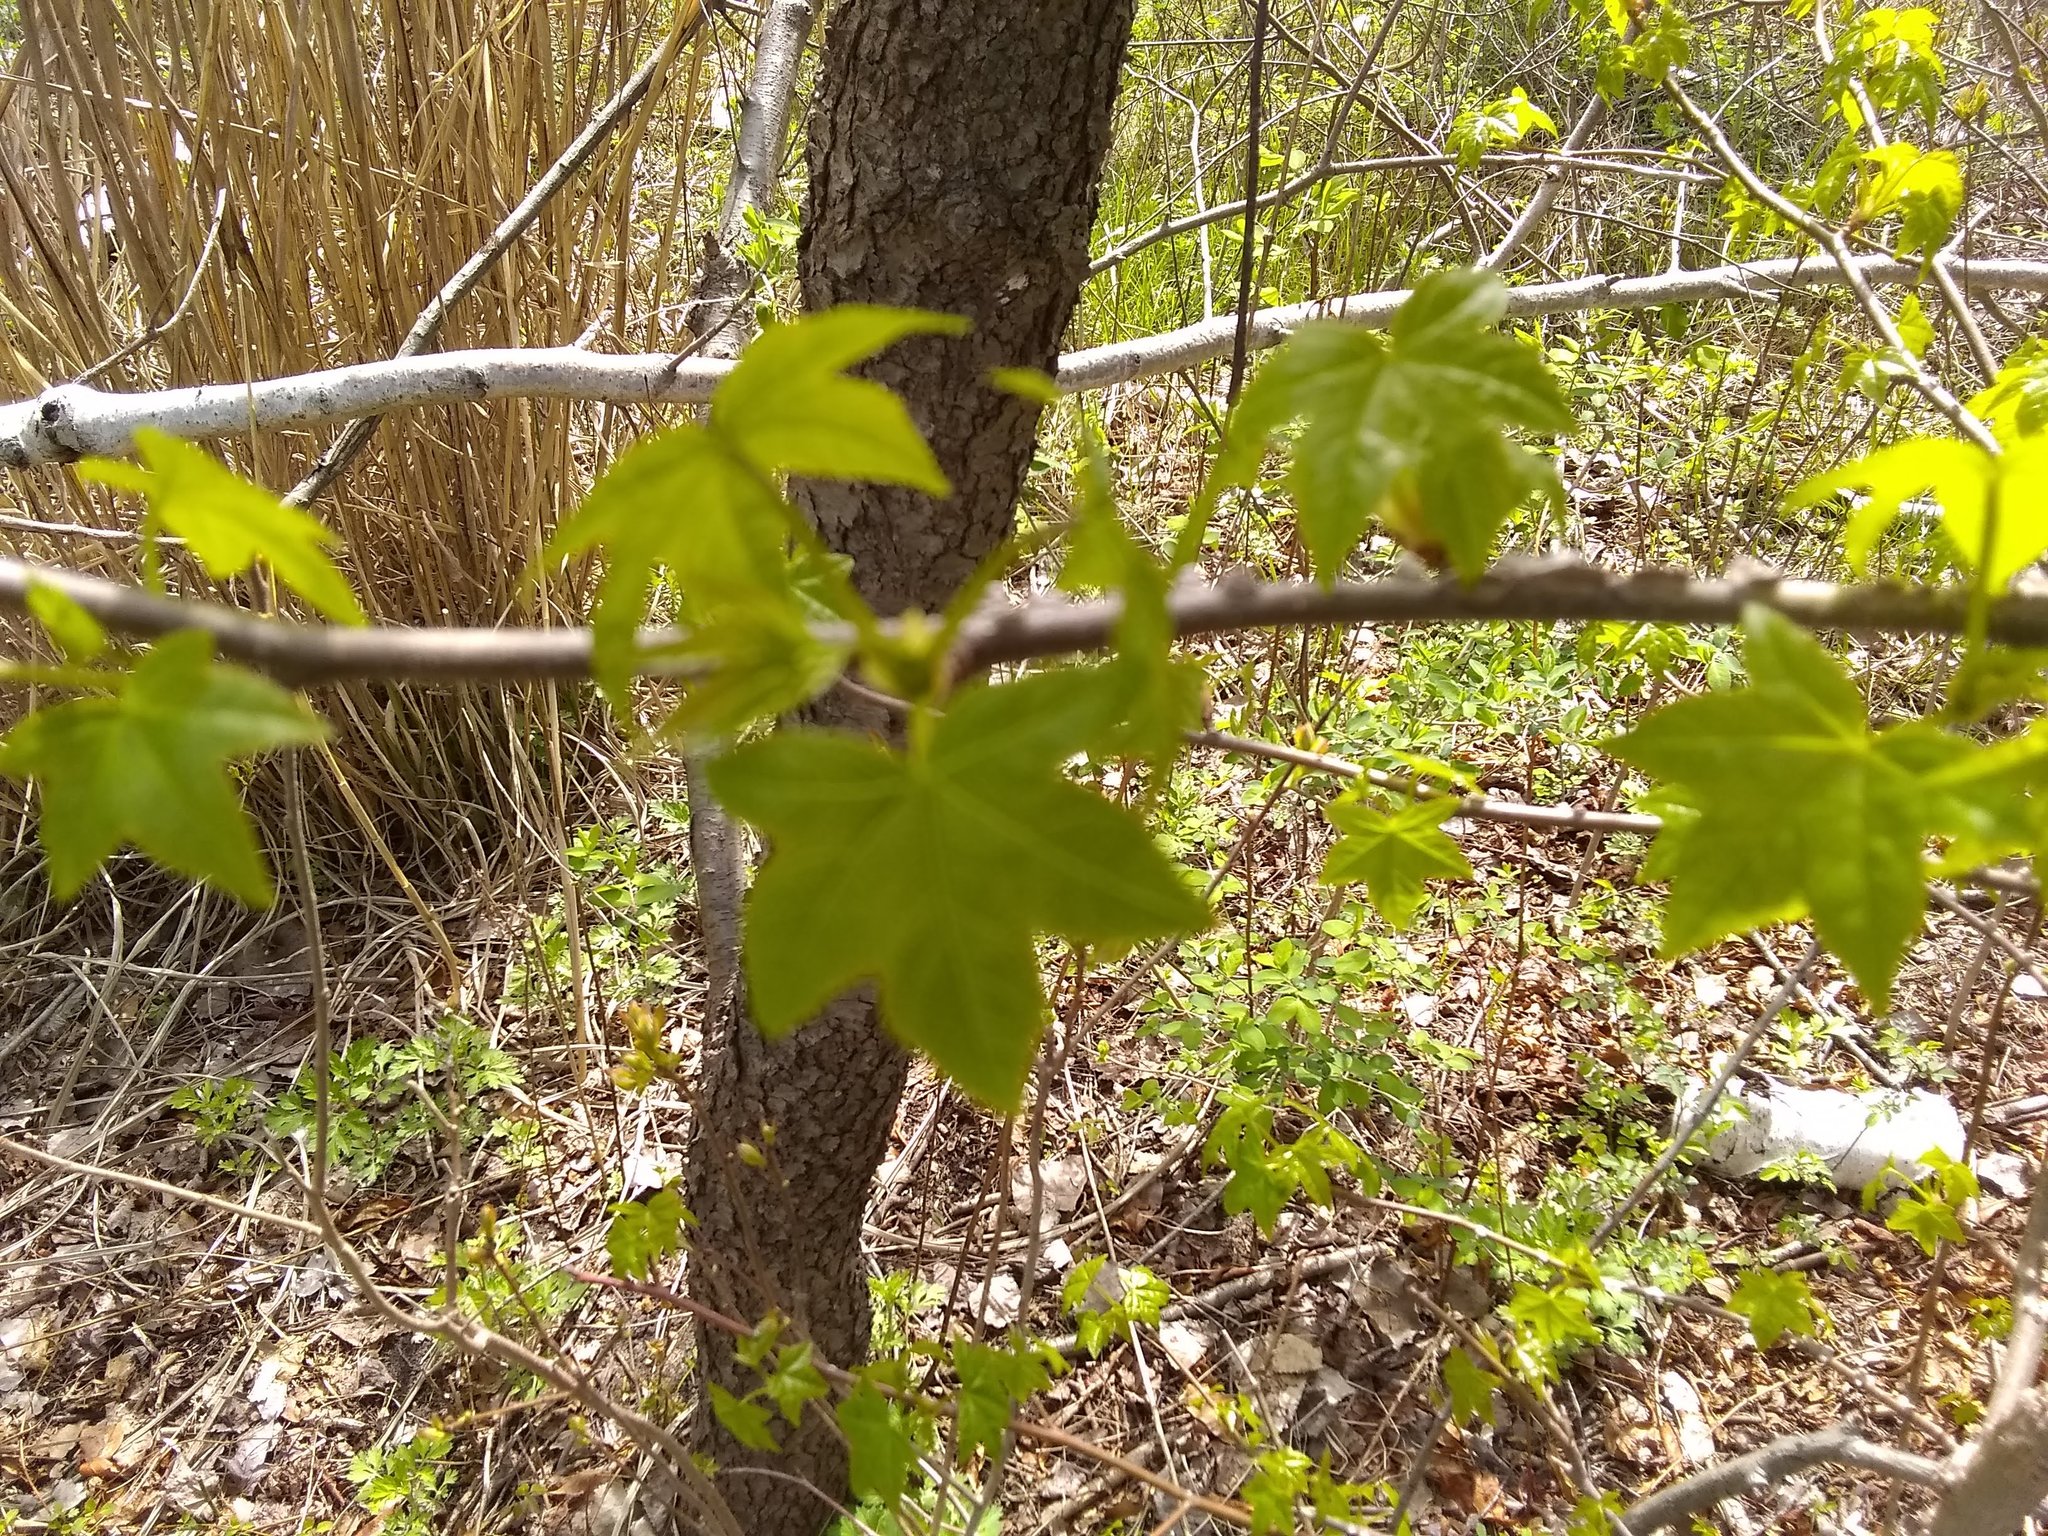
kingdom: Plantae
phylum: Tracheophyta
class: Magnoliopsida
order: Saxifragales
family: Altingiaceae
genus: Liquidambar
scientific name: Liquidambar styraciflua
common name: Sweet gum
